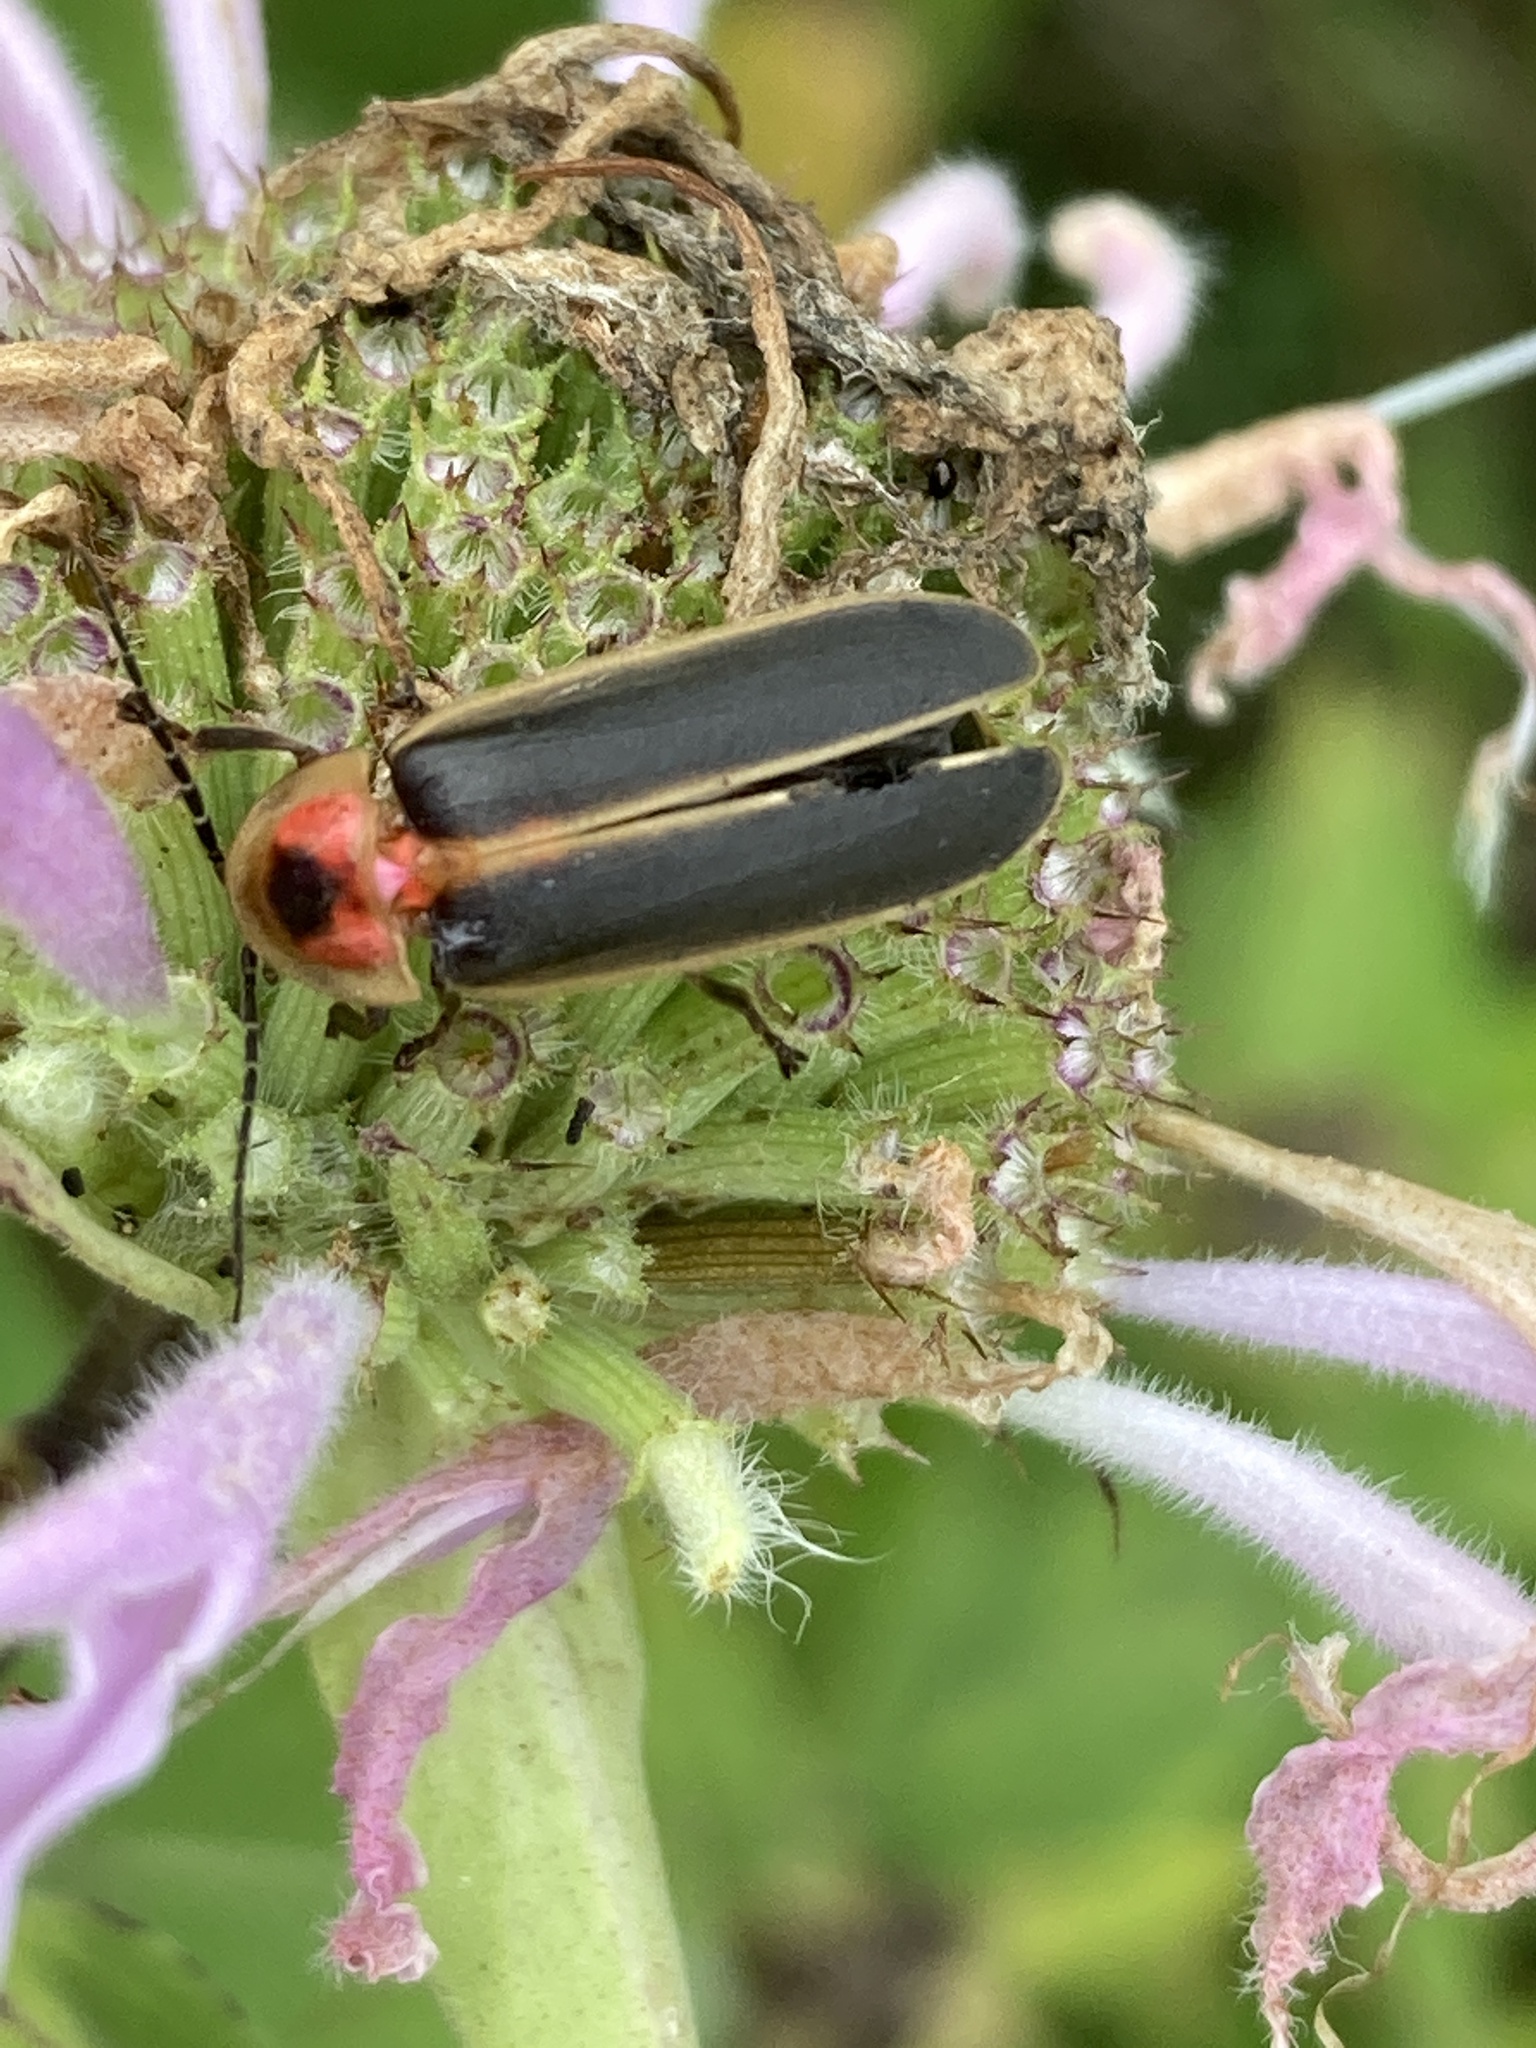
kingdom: Animalia
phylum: Arthropoda
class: Insecta
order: Coleoptera
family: Lampyridae
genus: Photinus
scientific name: Photinus pyralis
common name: Big dipper firefly
